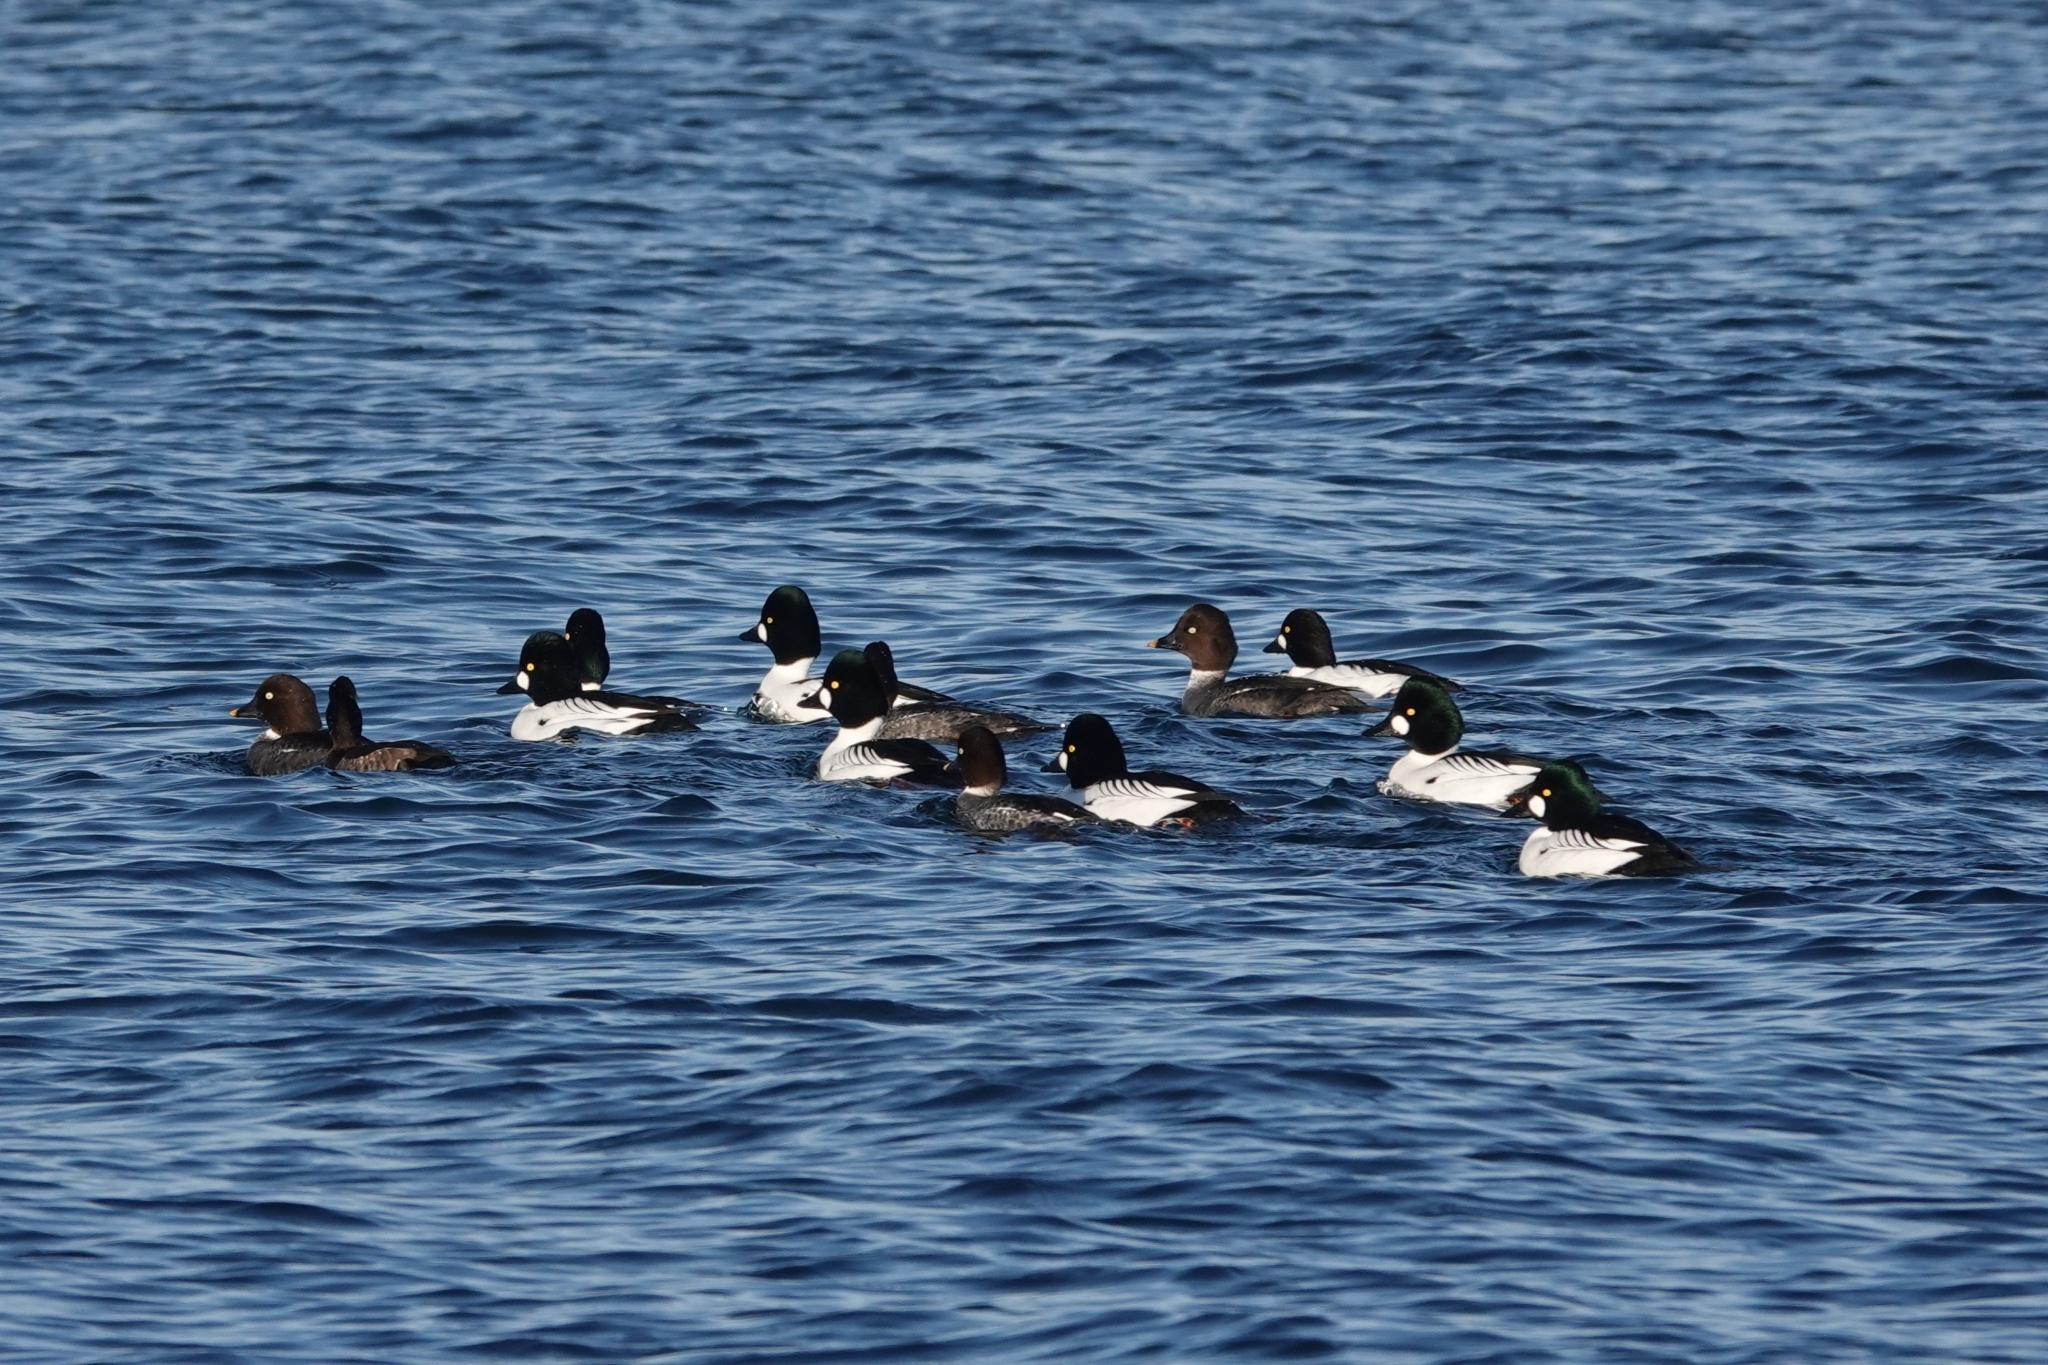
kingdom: Animalia
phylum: Chordata
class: Aves
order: Anseriformes
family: Anatidae
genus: Bucephala
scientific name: Bucephala clangula
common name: Common goldeneye
